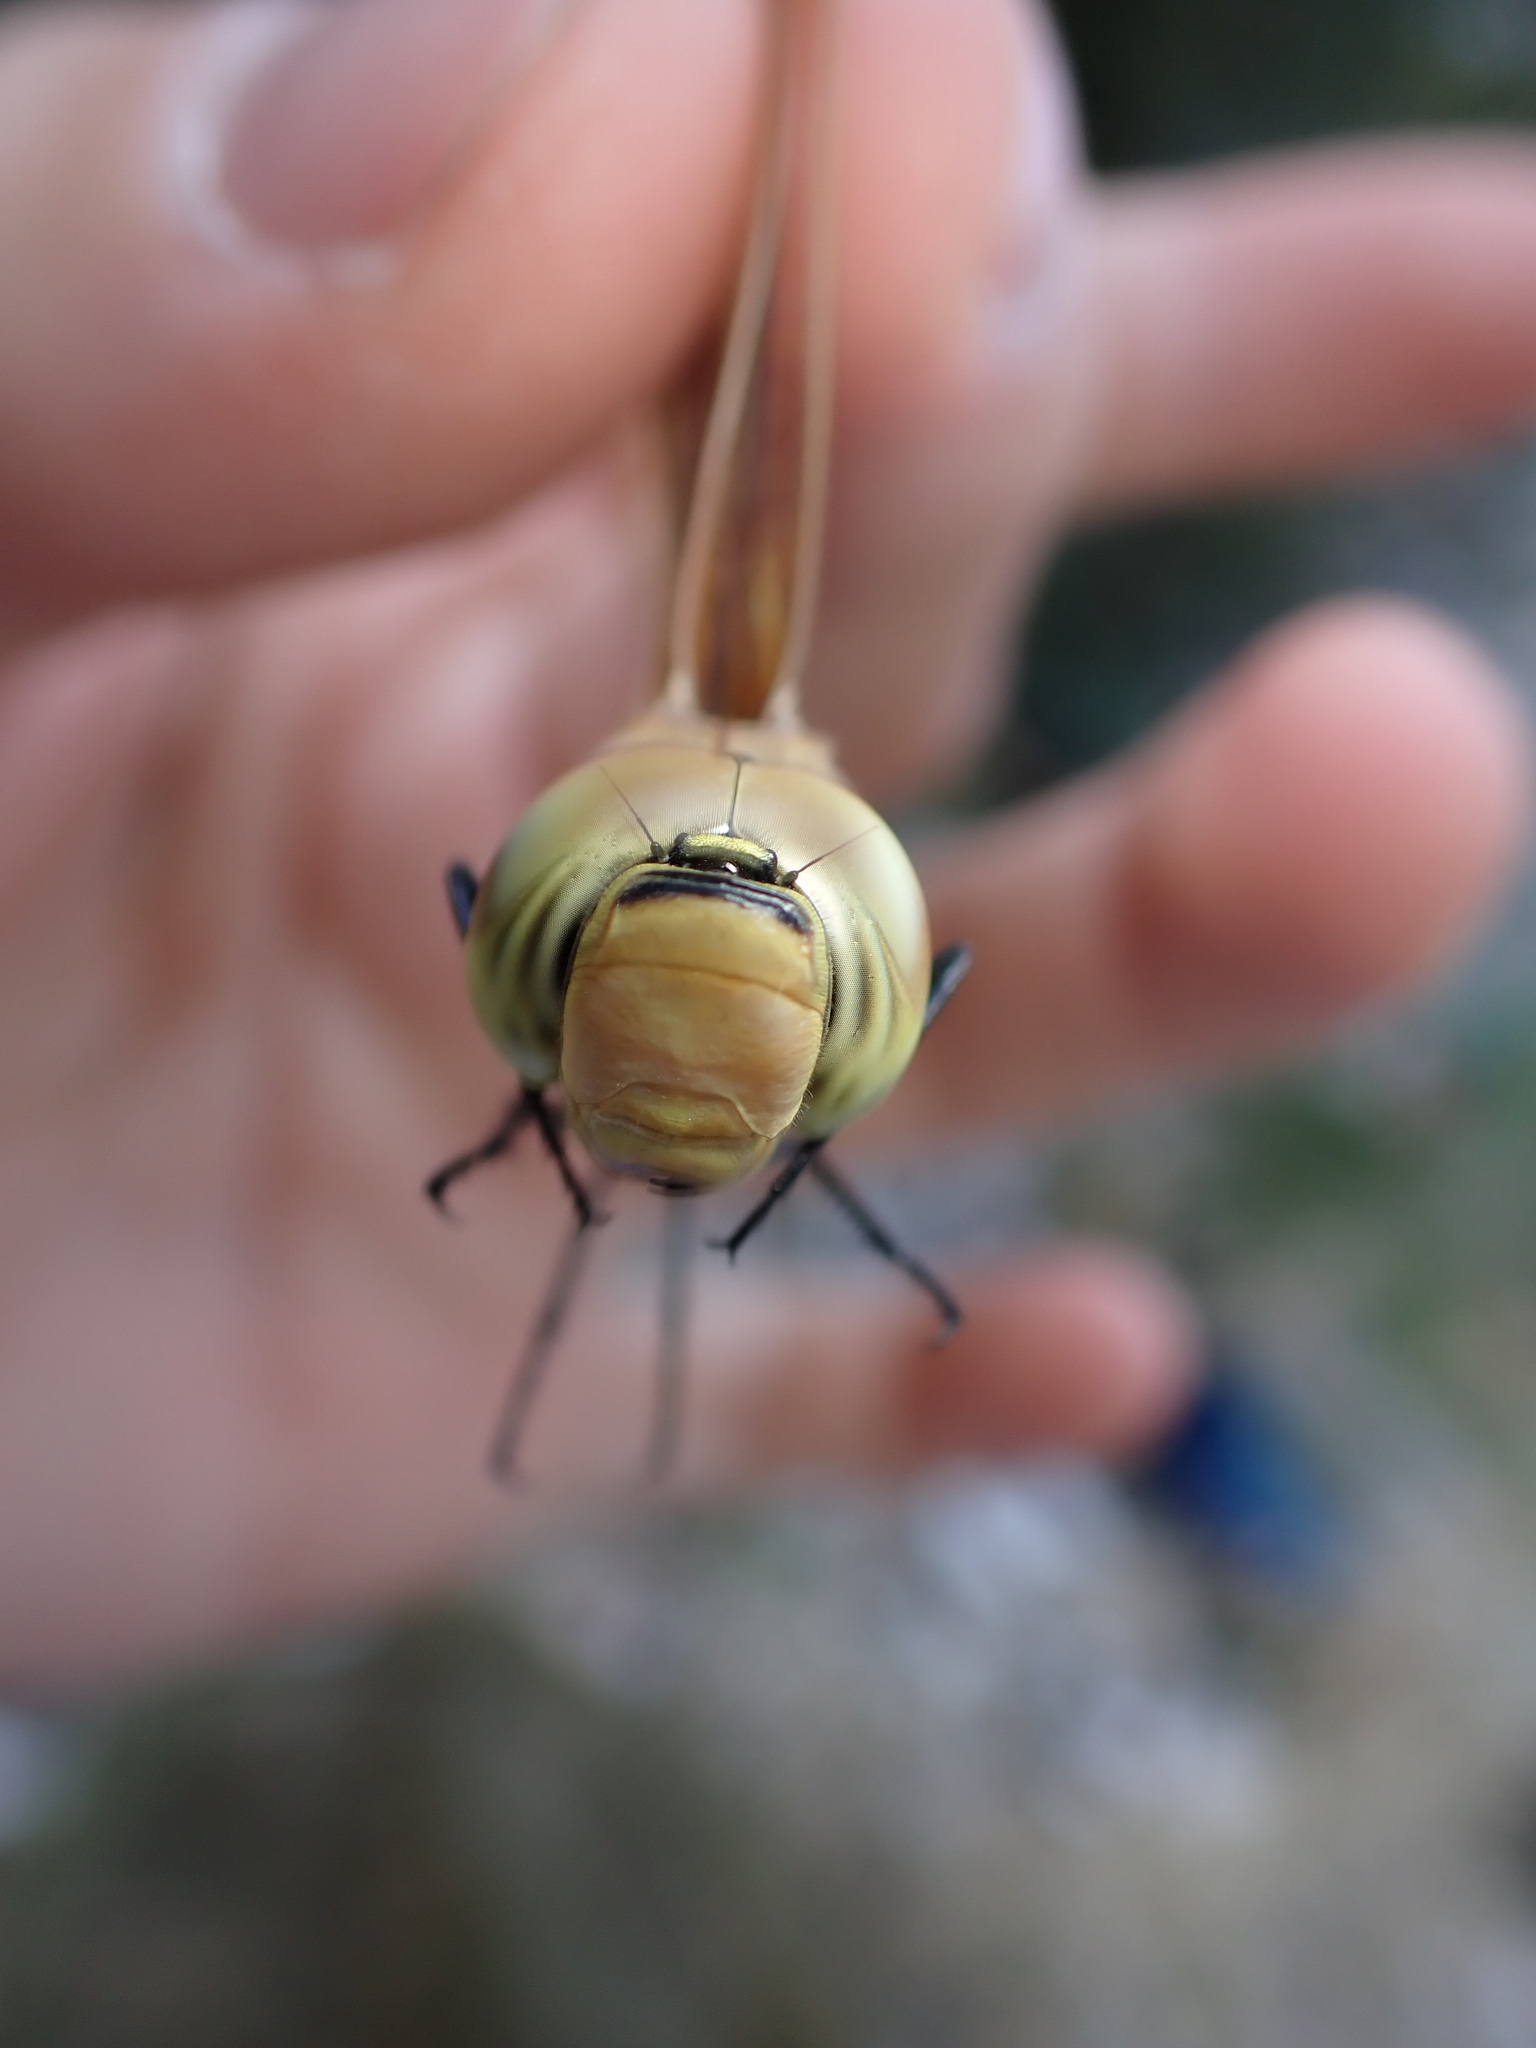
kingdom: Animalia
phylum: Arthropoda
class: Insecta
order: Odonata
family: Aeshnidae
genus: Anax
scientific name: Anax ephippiger
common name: Vagrant emperor
